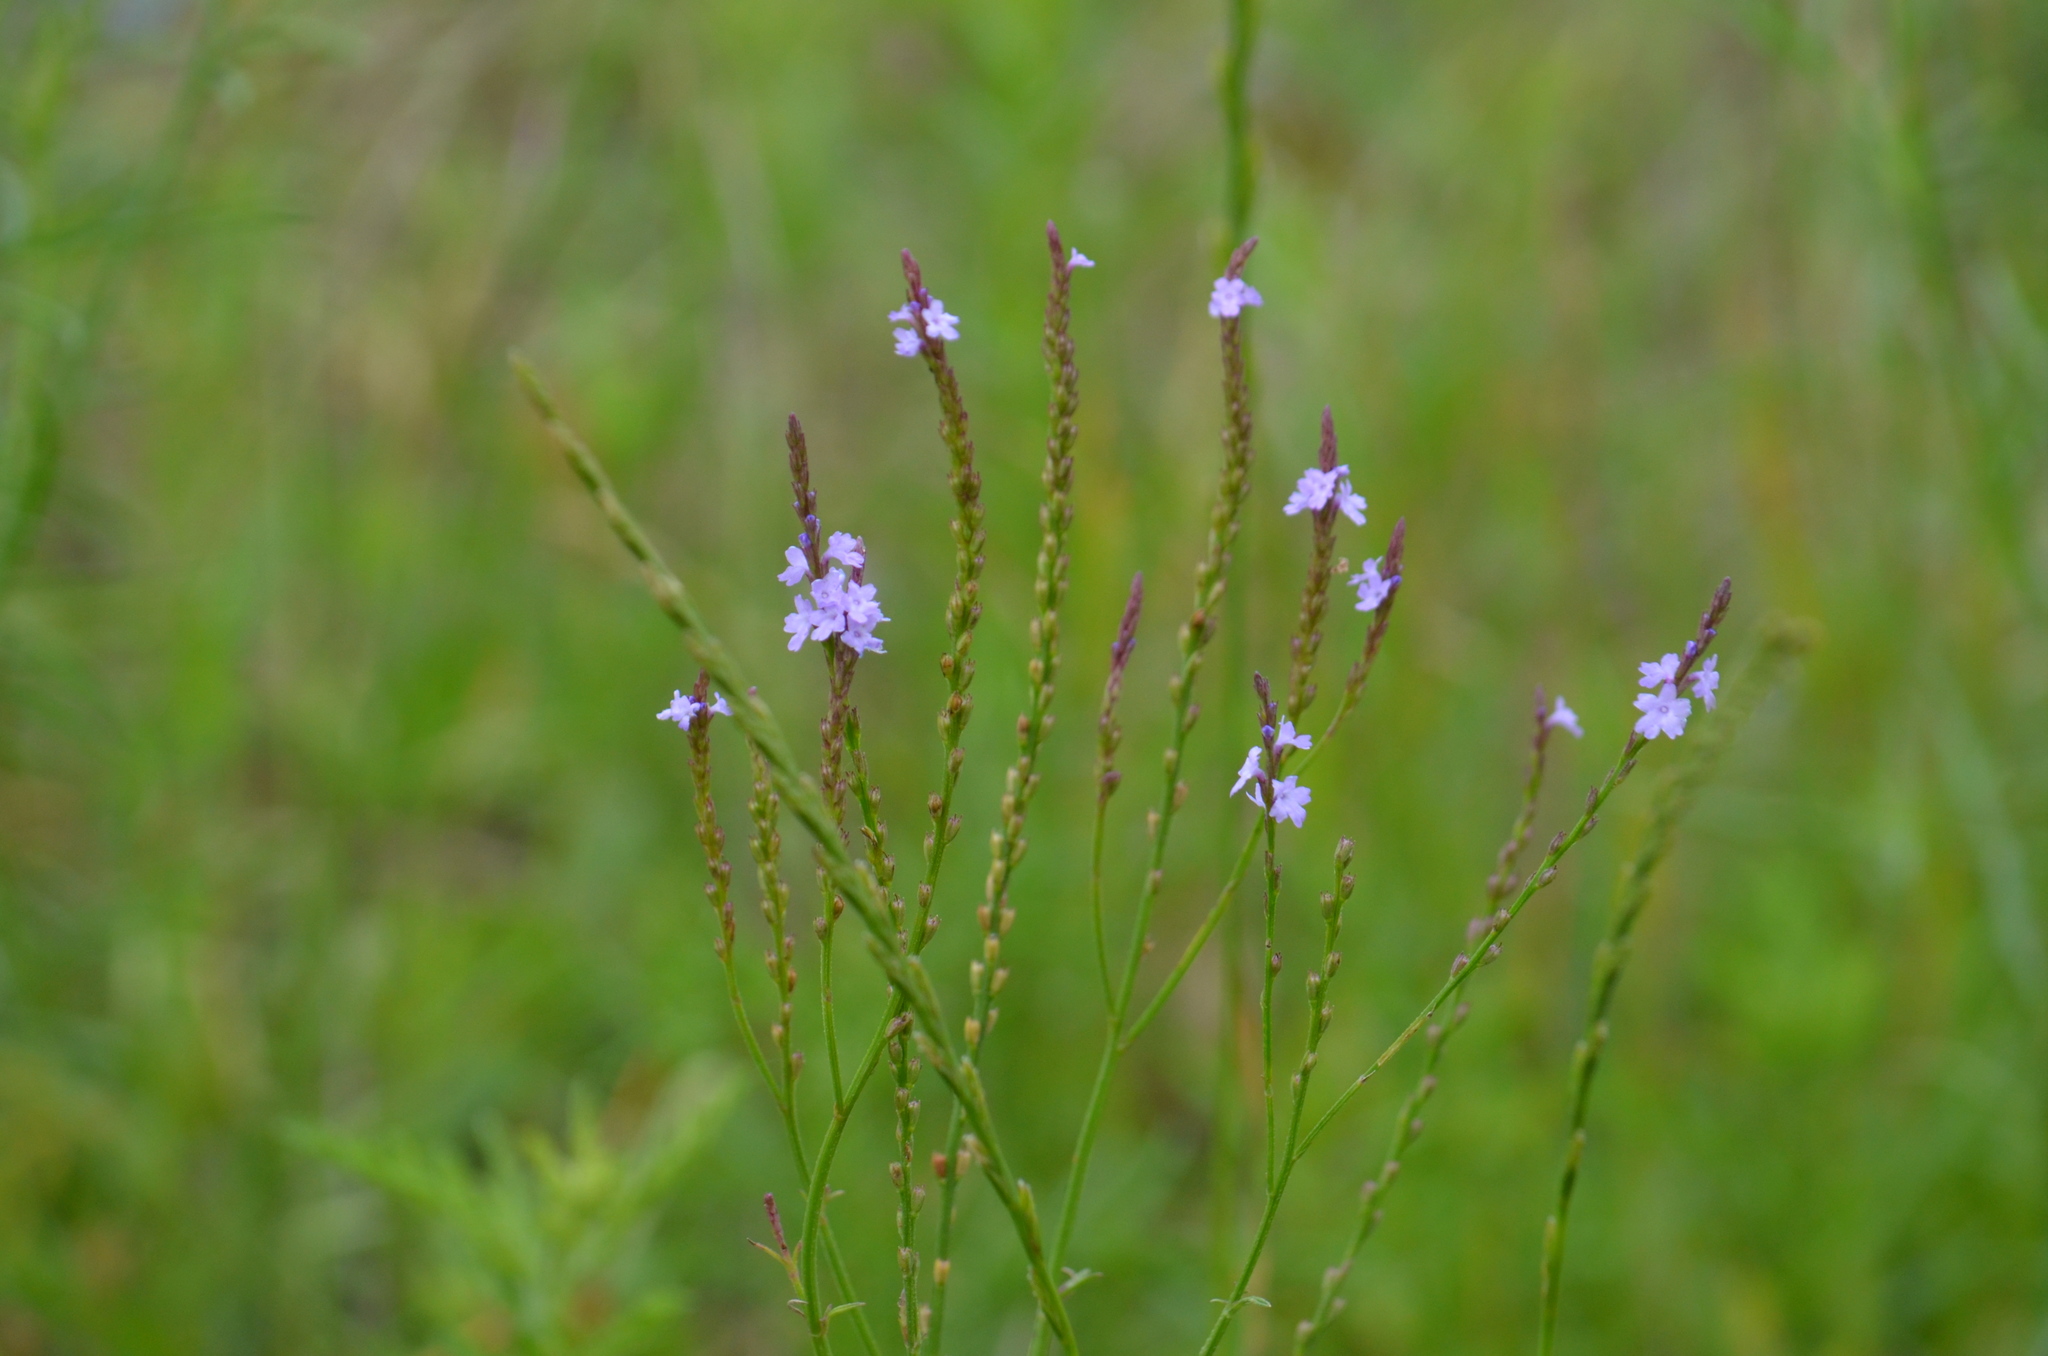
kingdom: Plantae
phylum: Tracheophyta
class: Magnoliopsida
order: Lamiales
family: Verbenaceae
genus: Verbena
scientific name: Verbena halei
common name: Texas vervain
